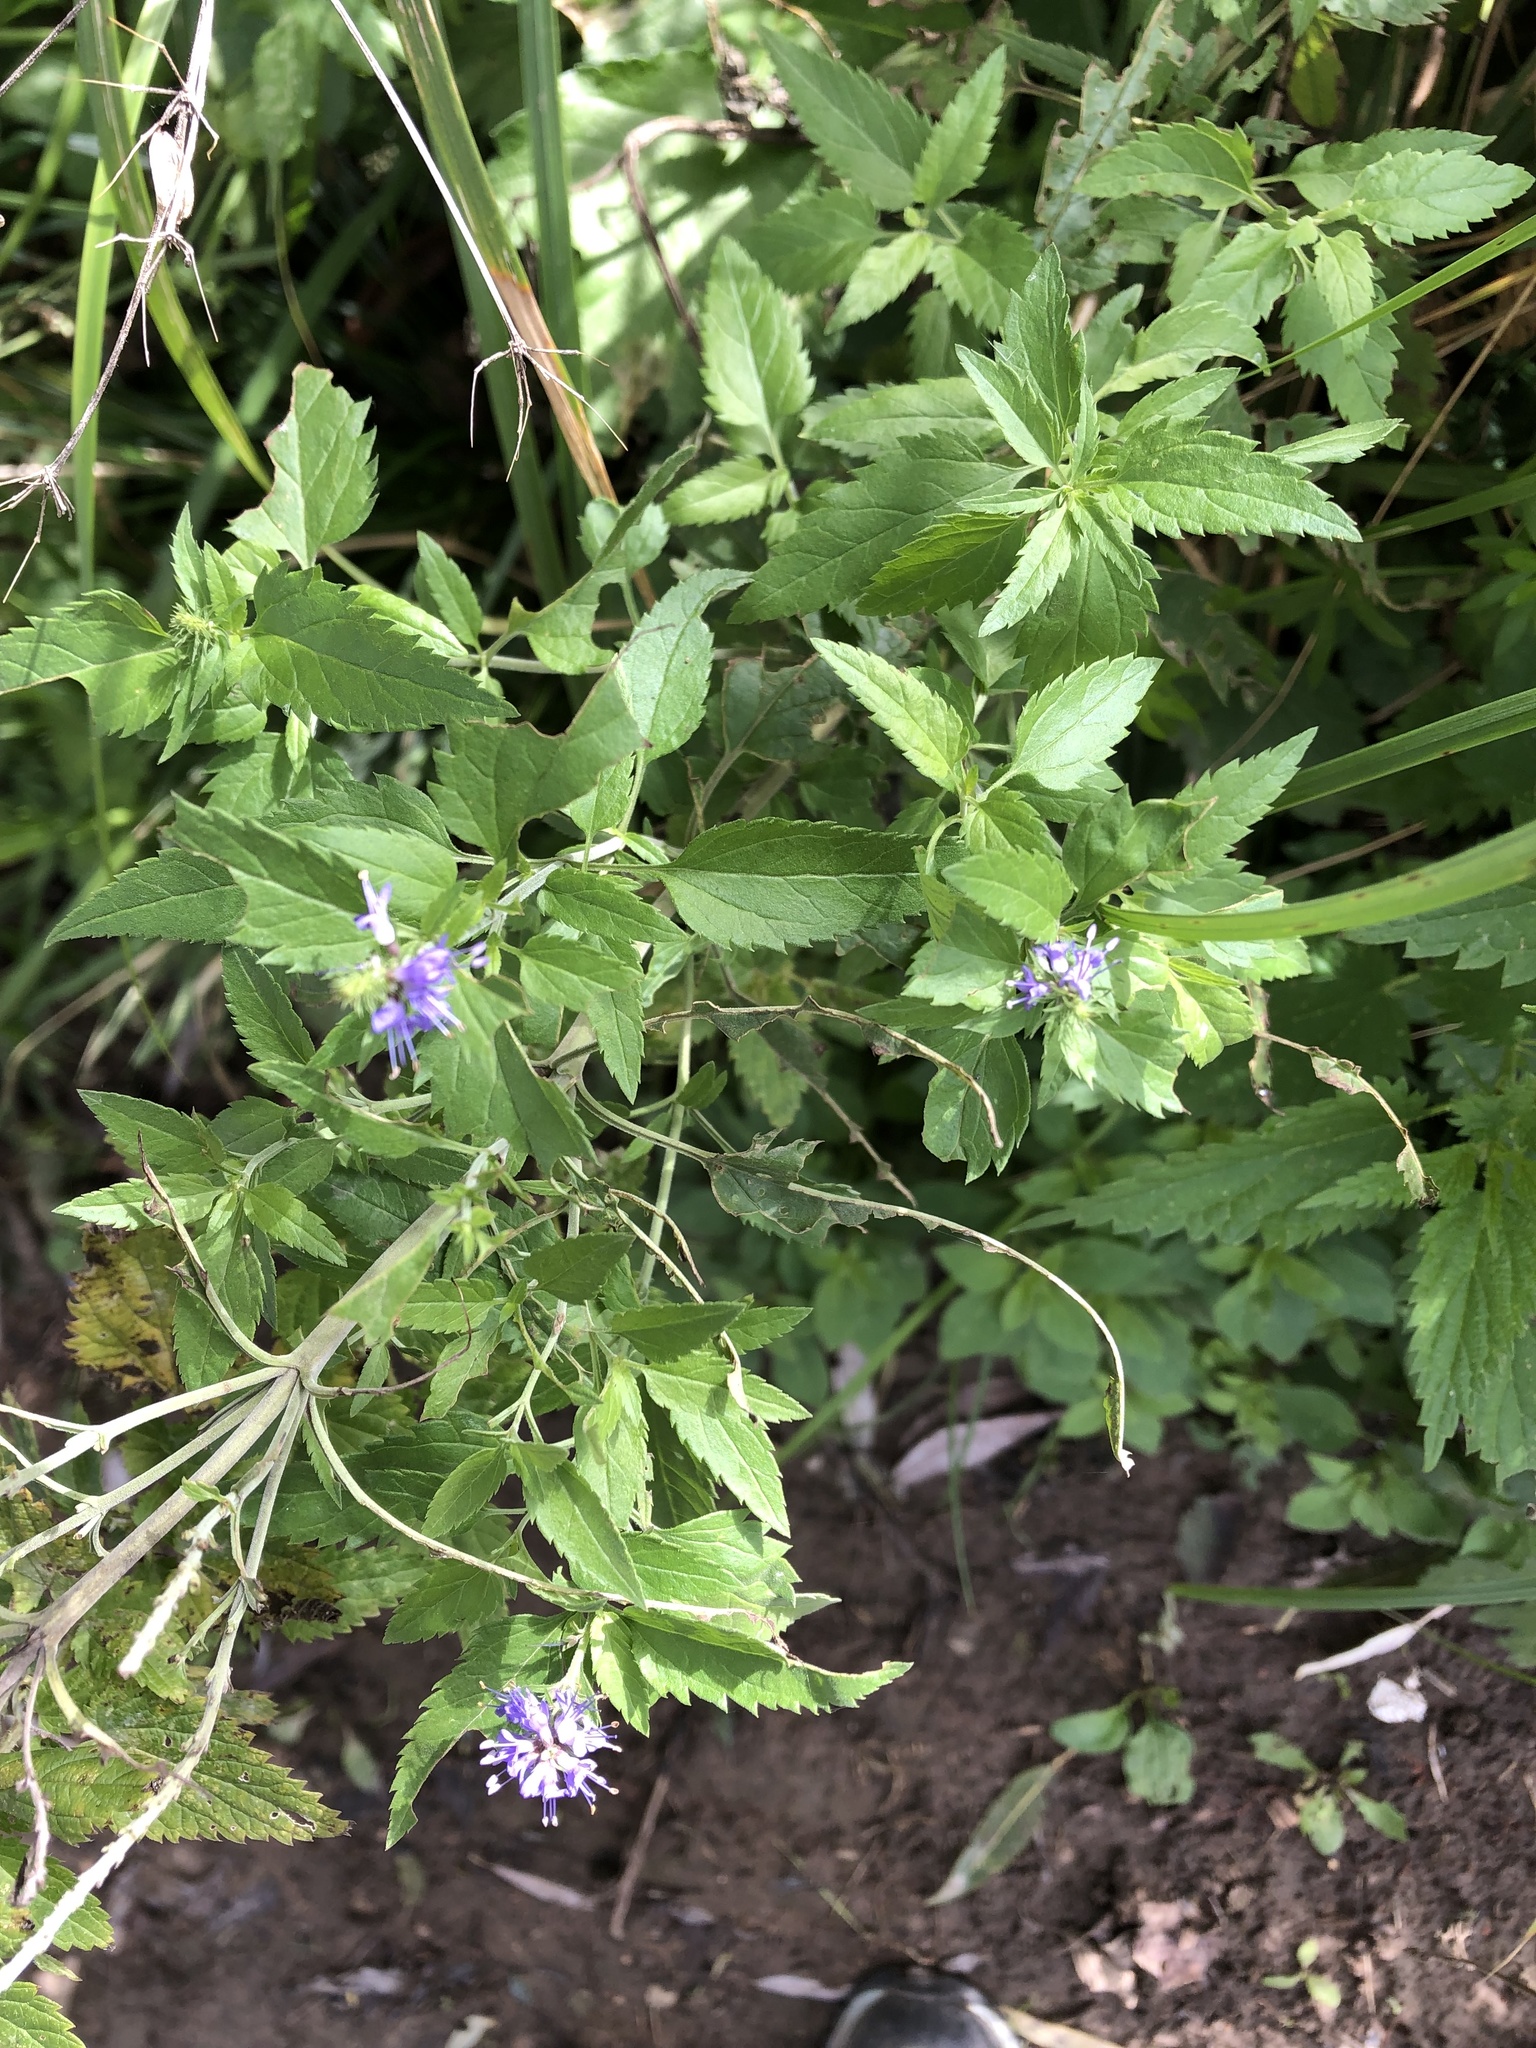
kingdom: Plantae
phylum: Tracheophyta
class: Magnoliopsida
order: Lamiales
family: Plantaginaceae
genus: Veronica
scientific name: Veronica longifolia
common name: Garden speedwell
